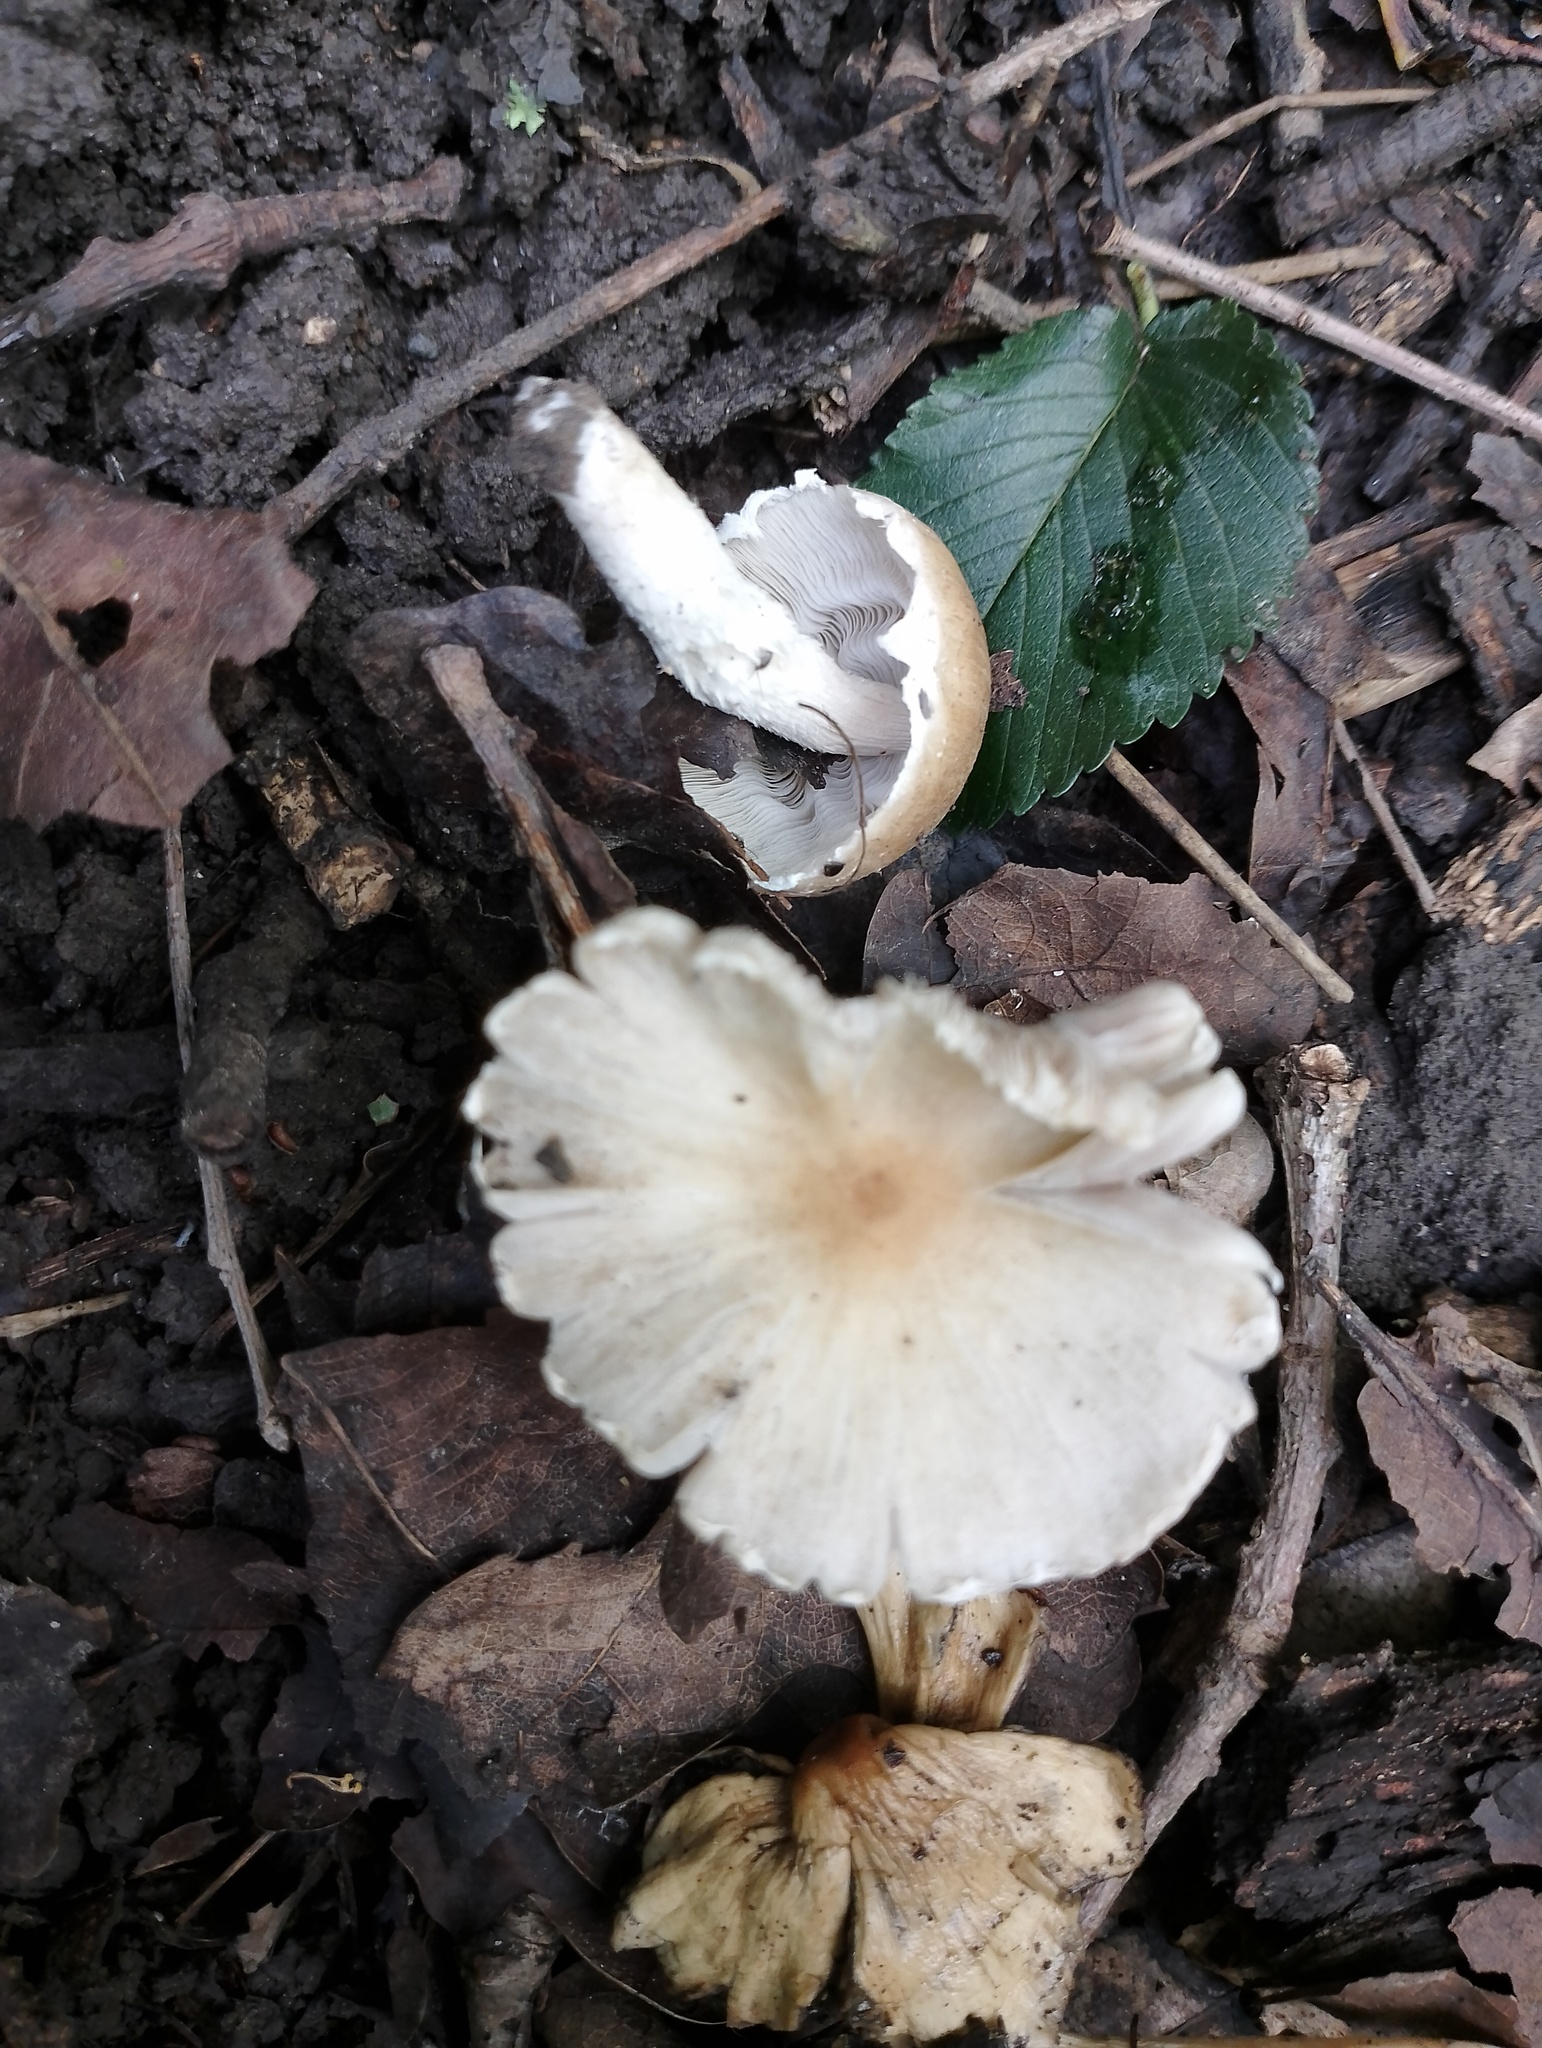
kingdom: Fungi
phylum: Basidiomycota
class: Agaricomycetes
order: Agaricales
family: Psathyrellaceae
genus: Candolleomyces
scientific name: Candolleomyces candolleanus
